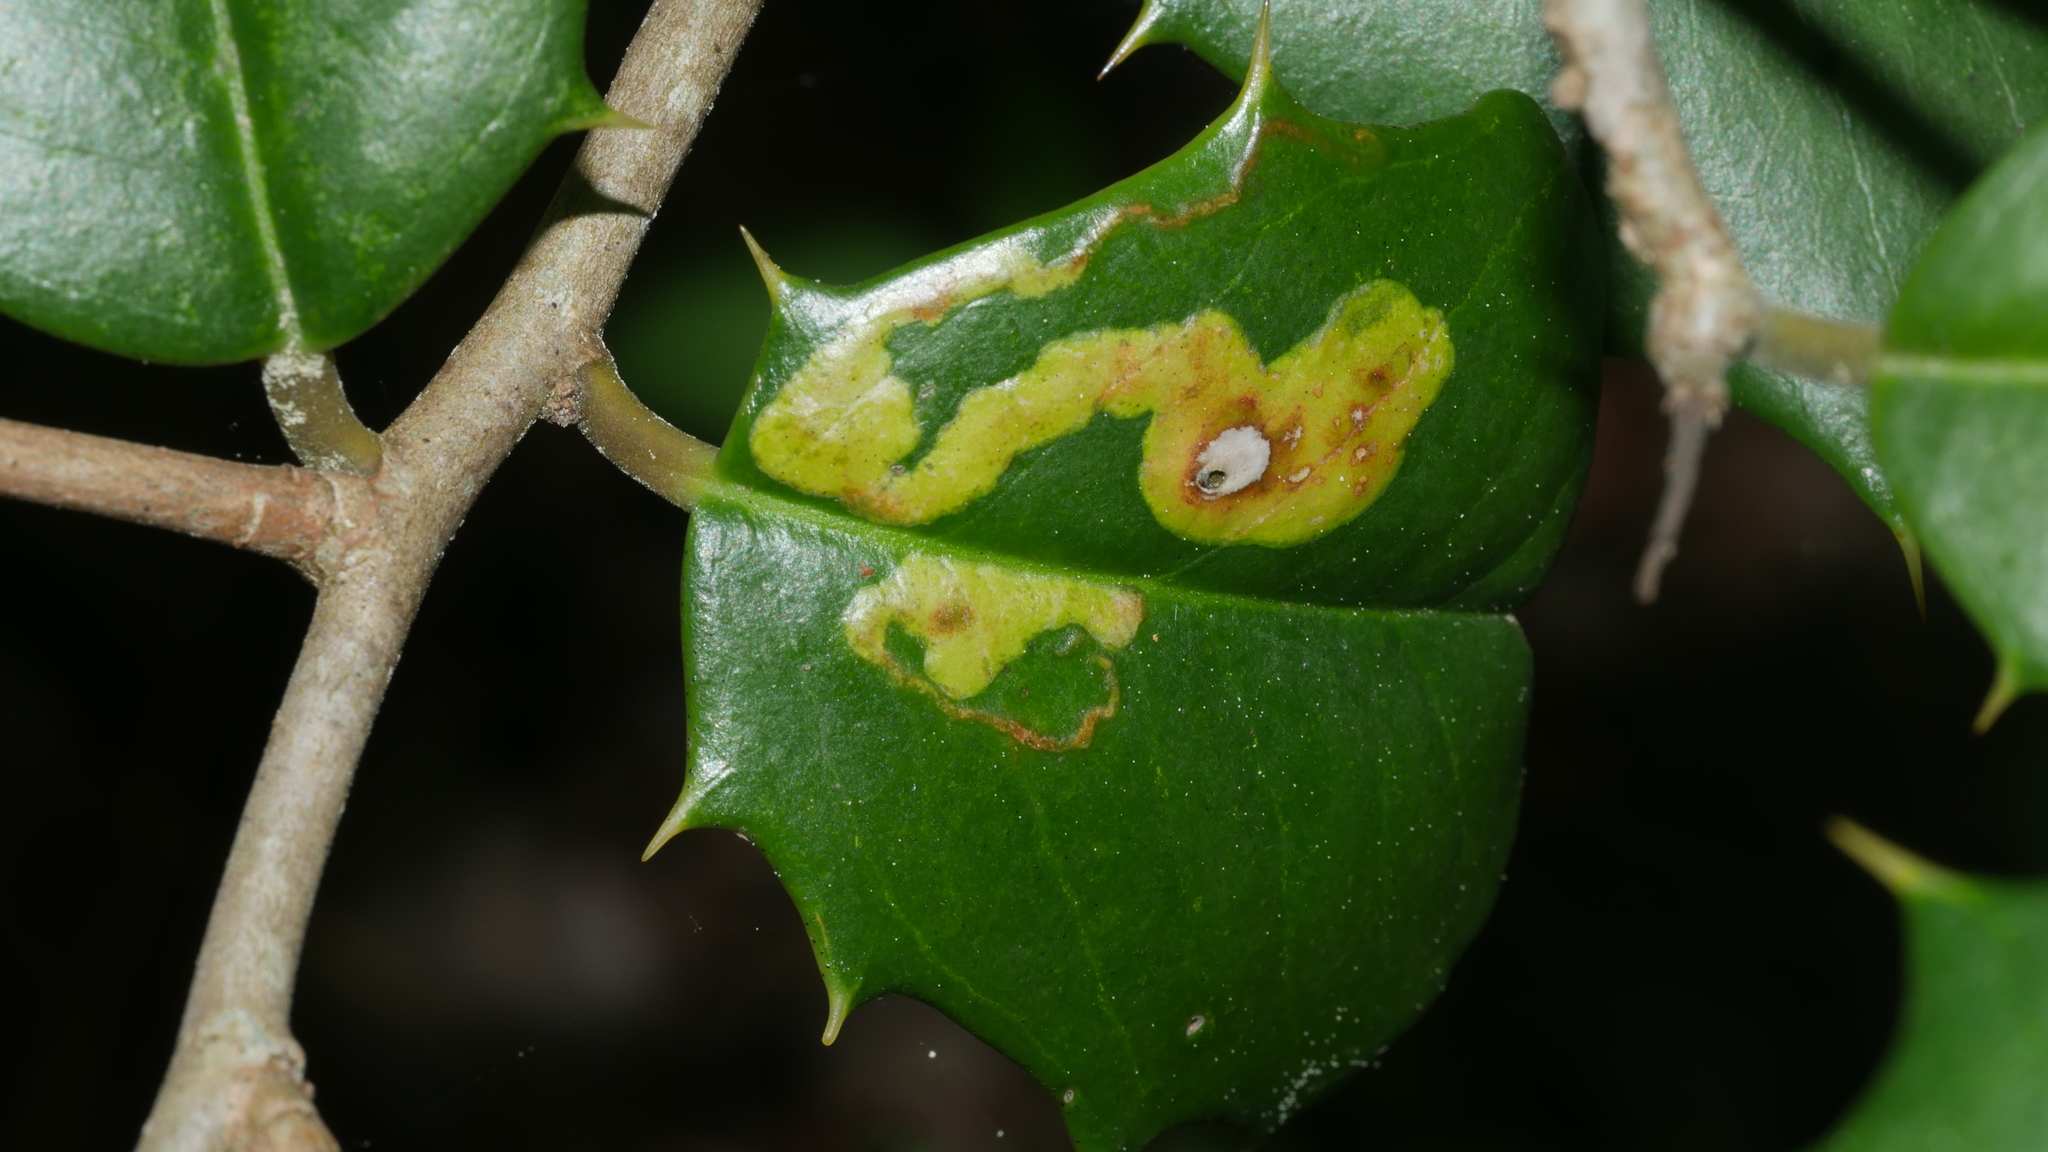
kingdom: Animalia
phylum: Arthropoda
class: Insecta
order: Diptera
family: Agromyzidae
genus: Phytomyza
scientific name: Phytomyza ilicicola
